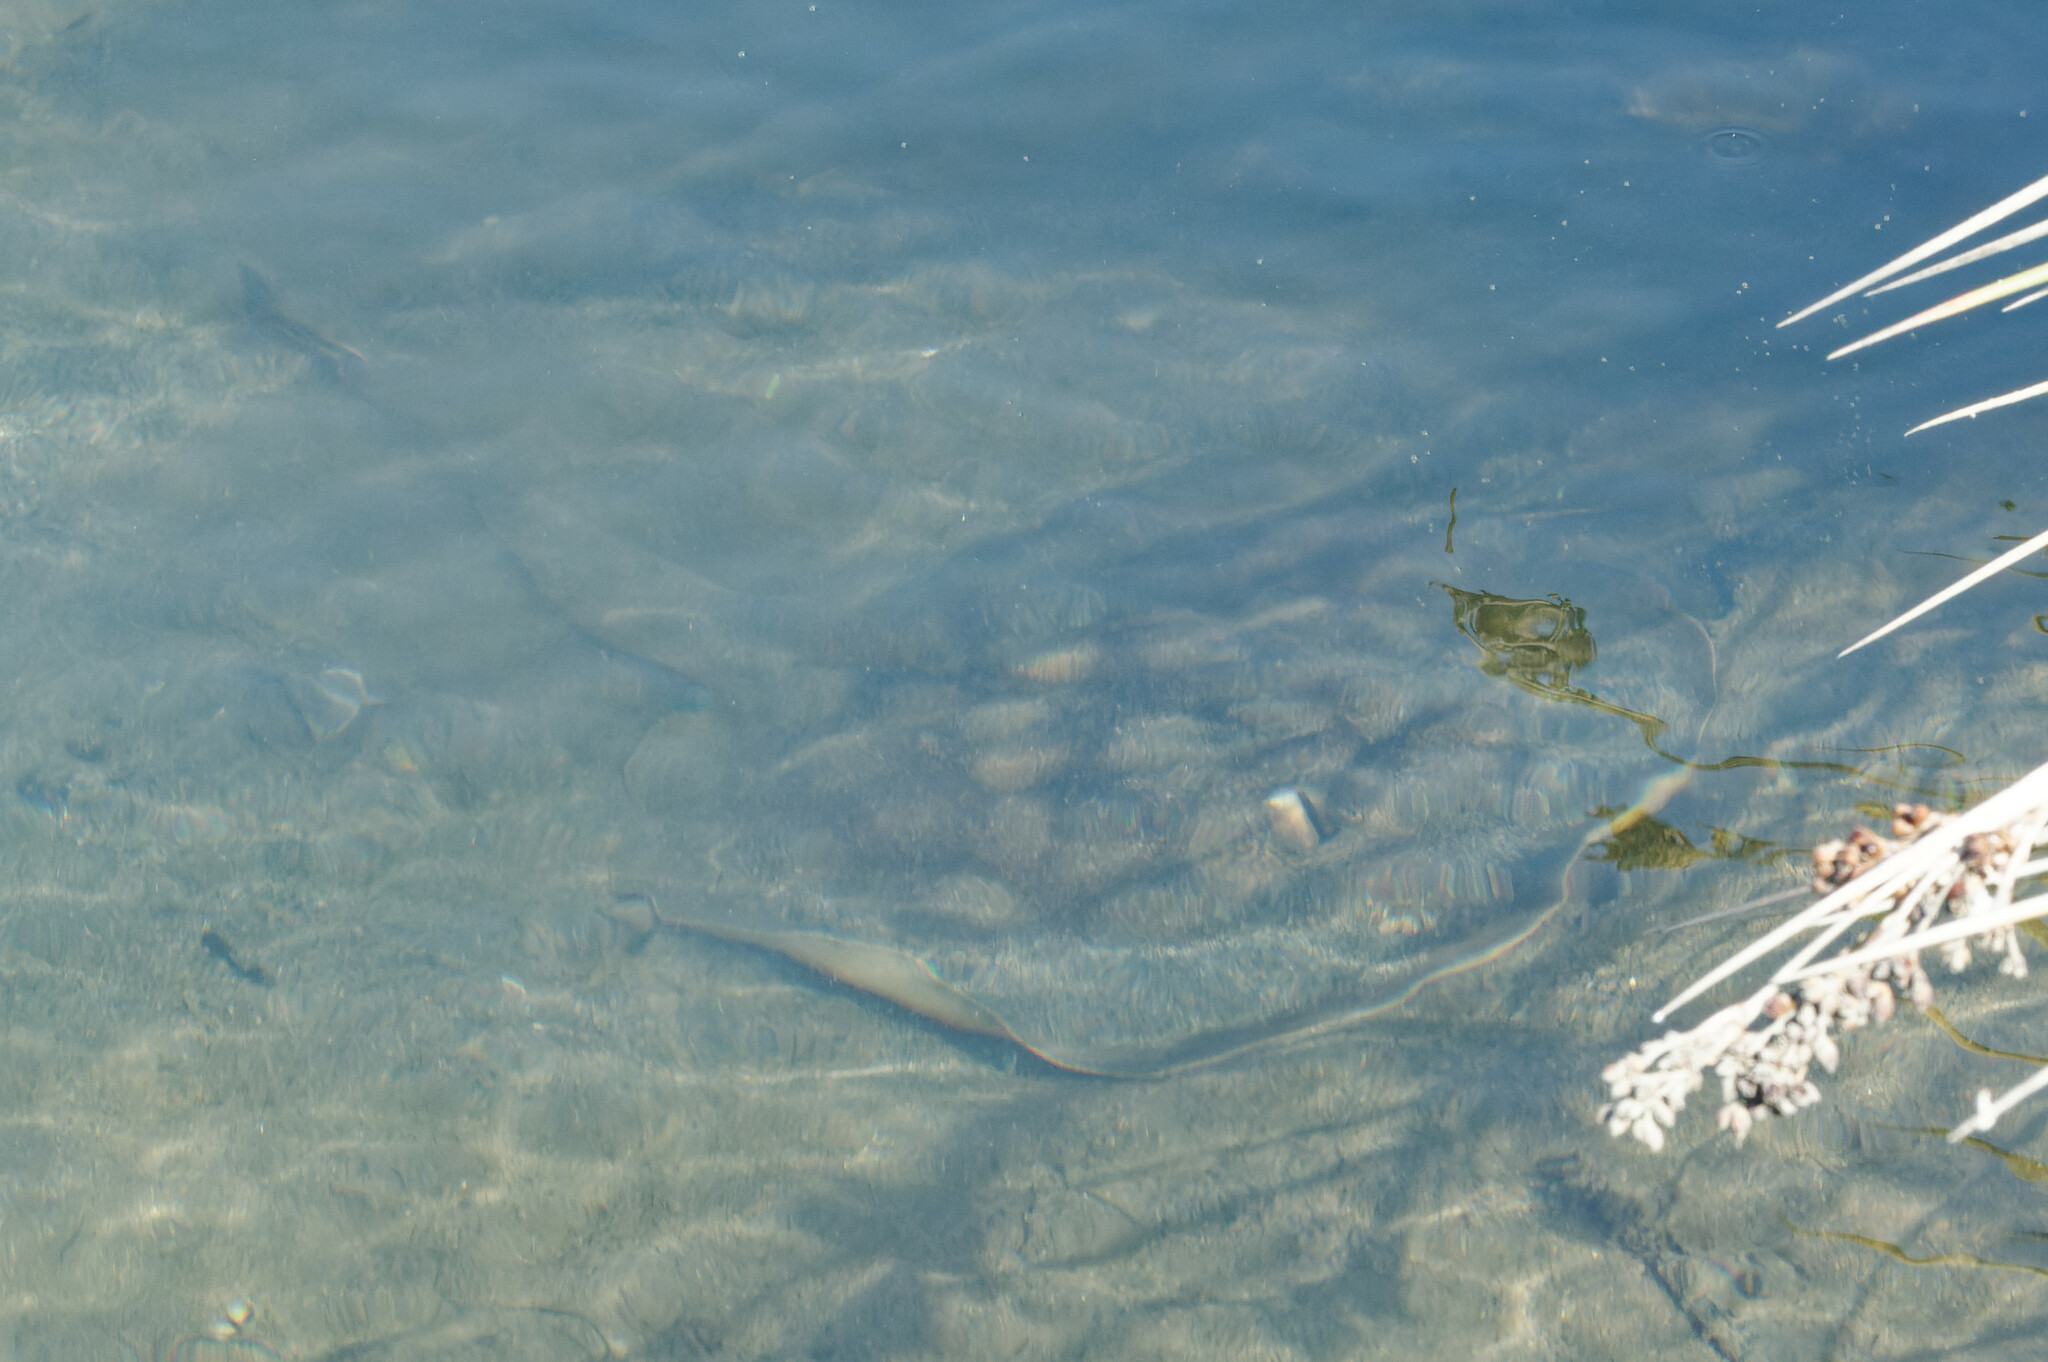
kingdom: Animalia
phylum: Chordata
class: Elasmobranchii
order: Myliobatiformes
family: Urolophidae
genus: Urolophus
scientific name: Urolophus halleri
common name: Round stingray
